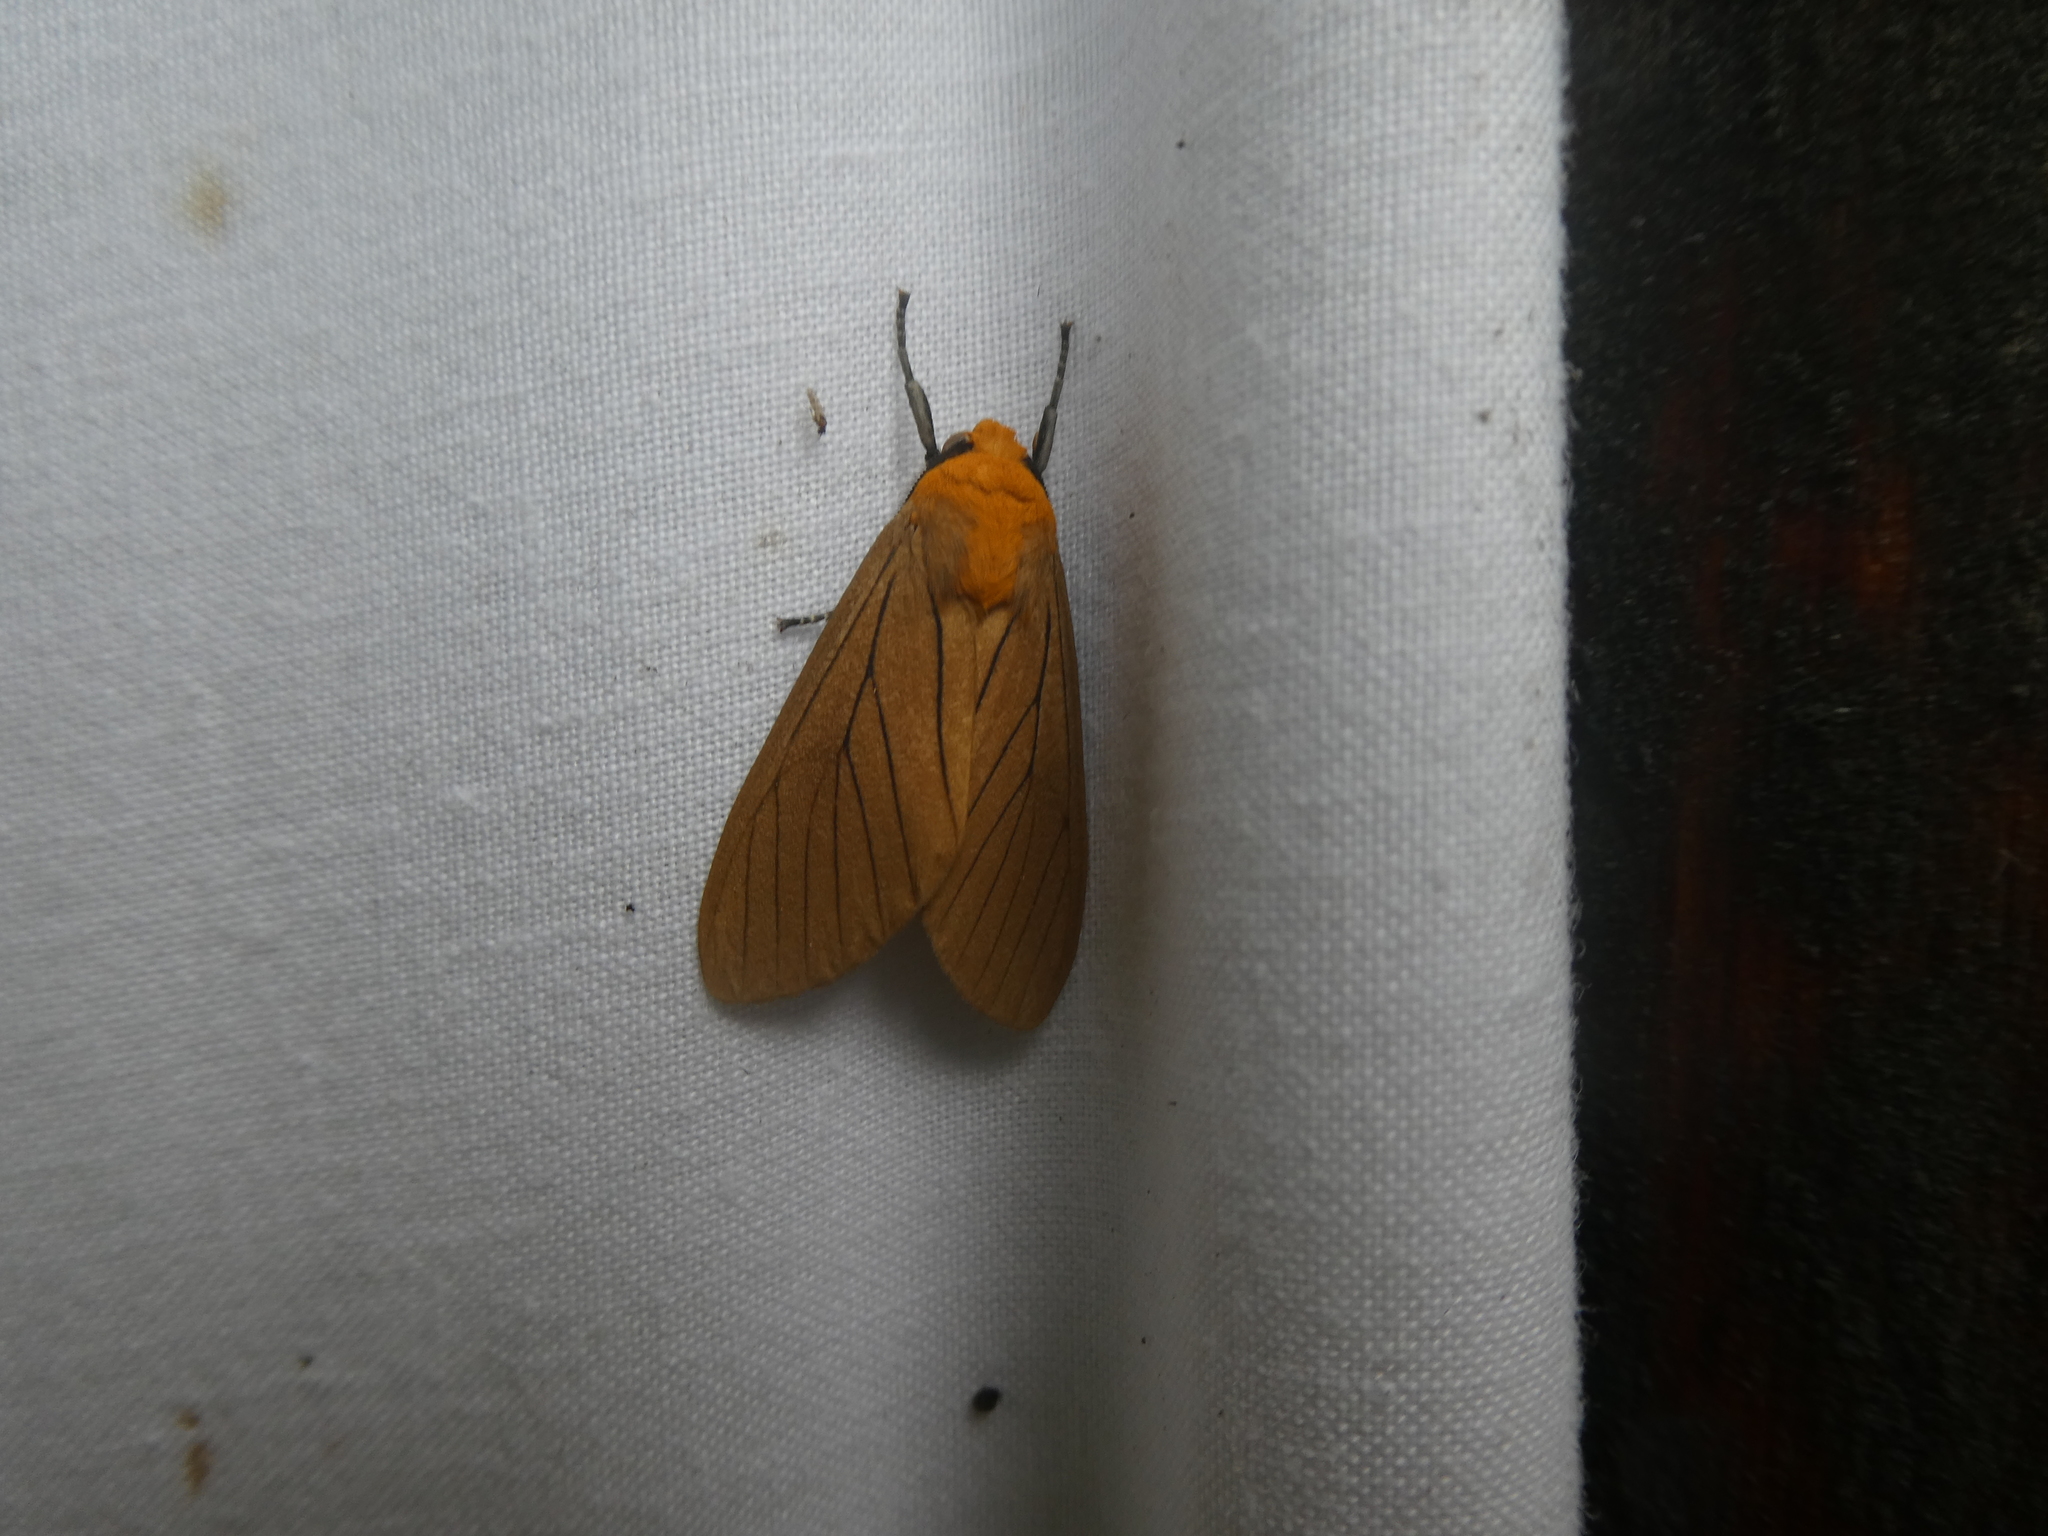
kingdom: Animalia
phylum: Arthropoda
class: Insecta
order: Lepidoptera
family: Erebidae
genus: Melese
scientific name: Melese
